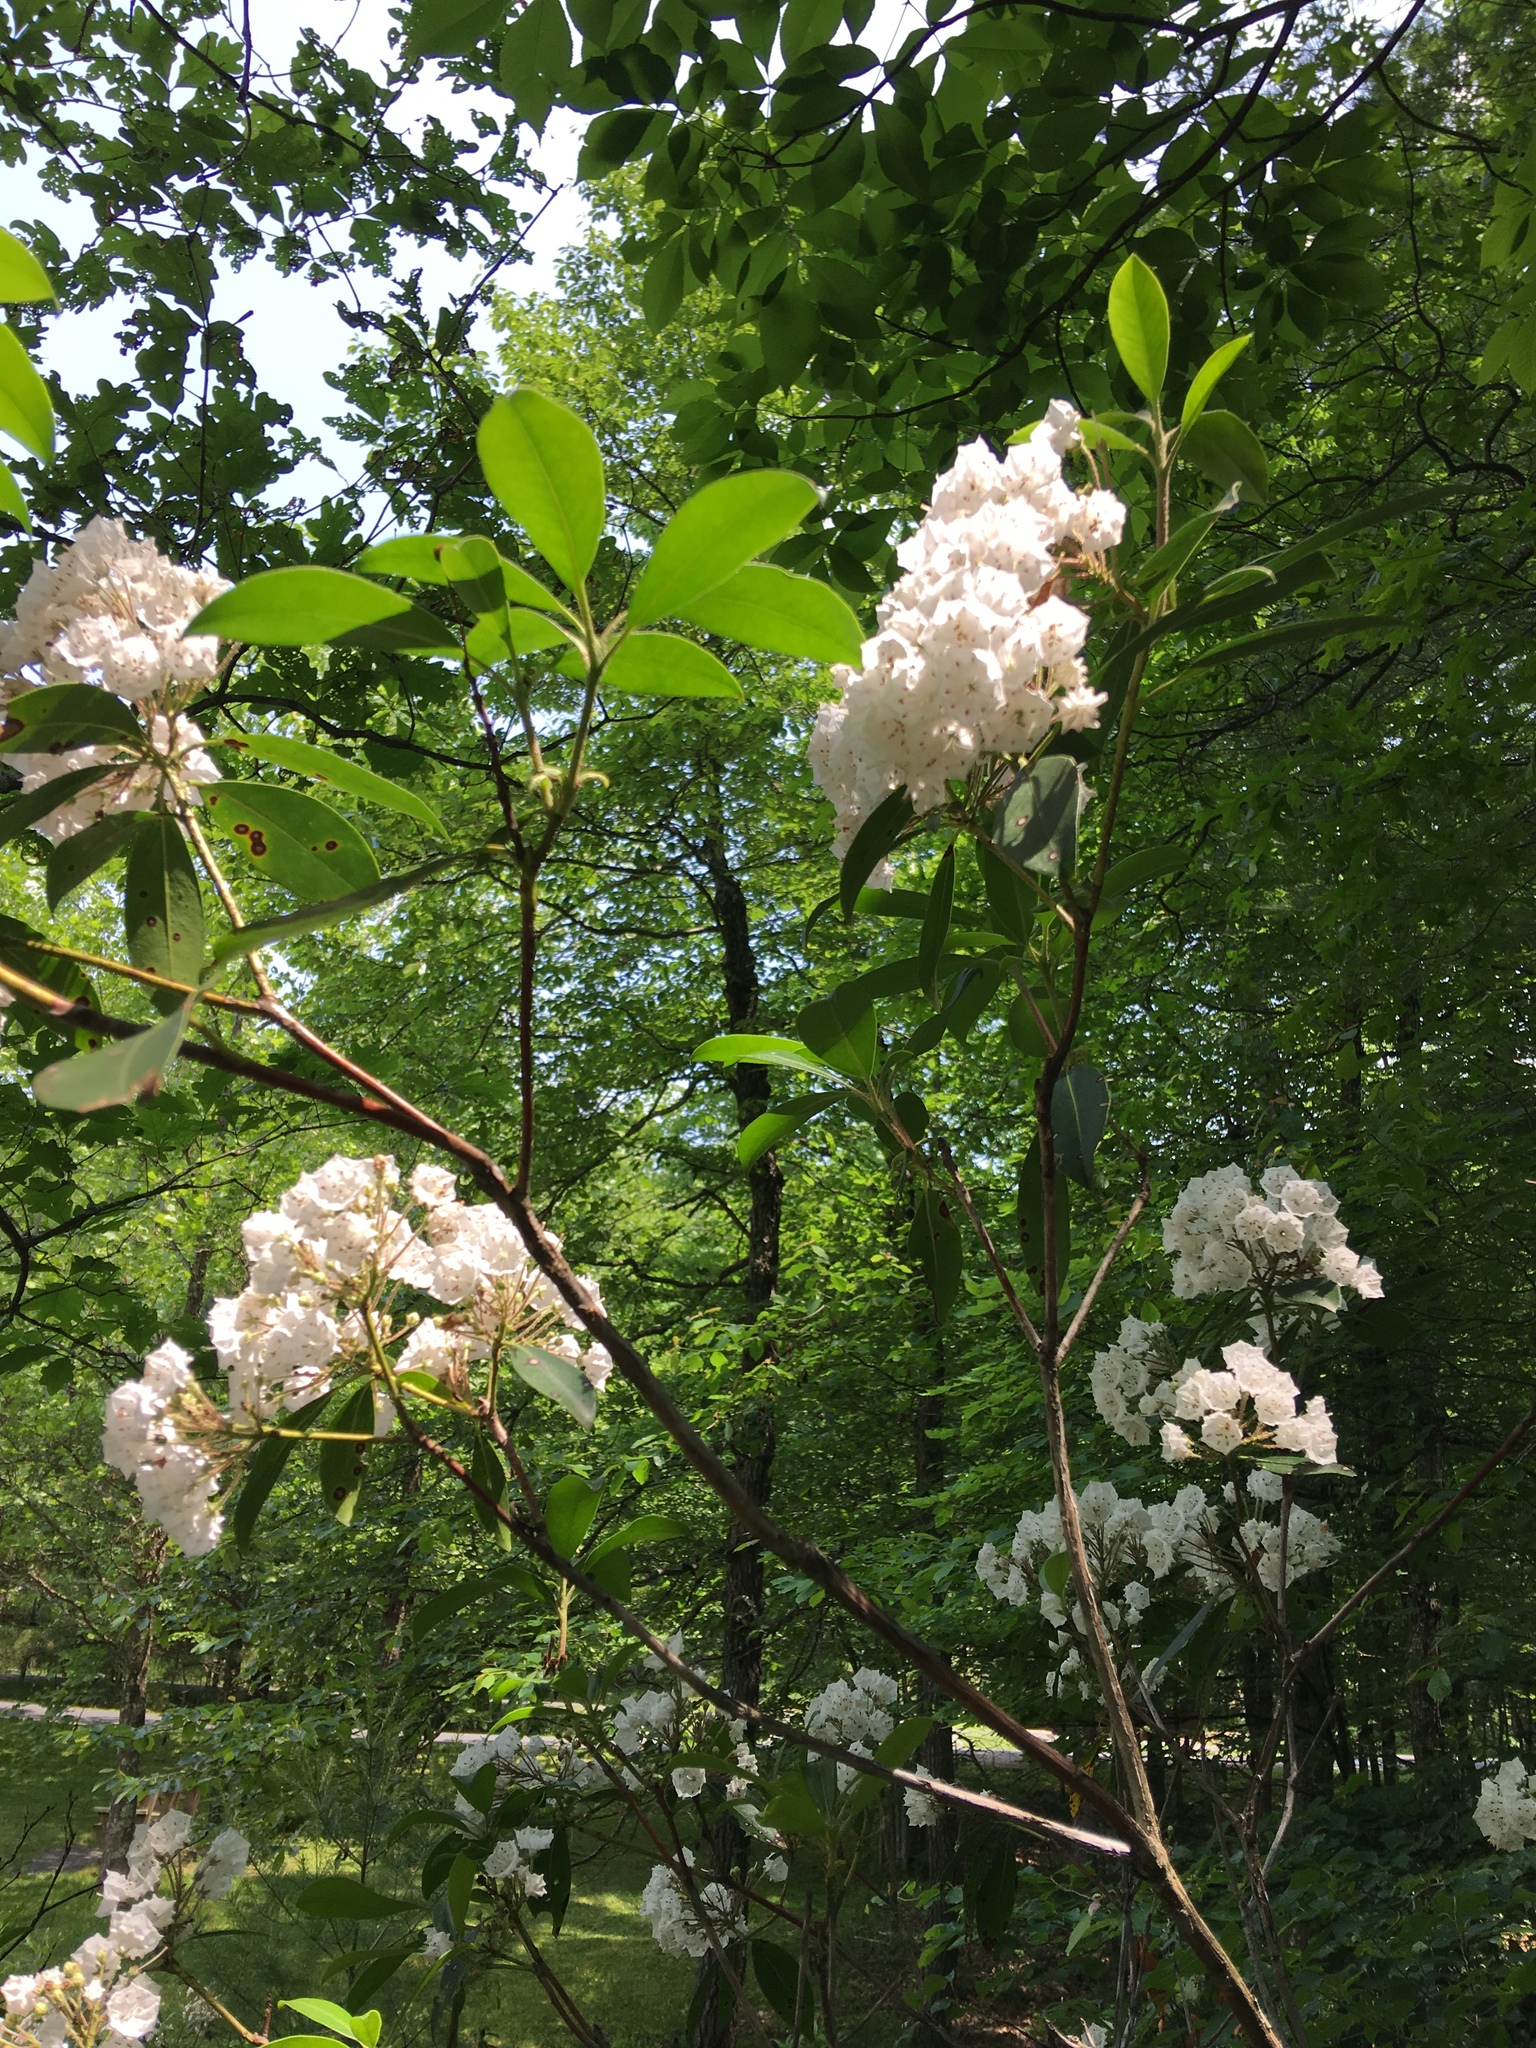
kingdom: Plantae
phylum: Tracheophyta
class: Magnoliopsida
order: Ericales
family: Ericaceae
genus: Kalmia
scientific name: Kalmia latifolia
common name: Mountain-laurel
